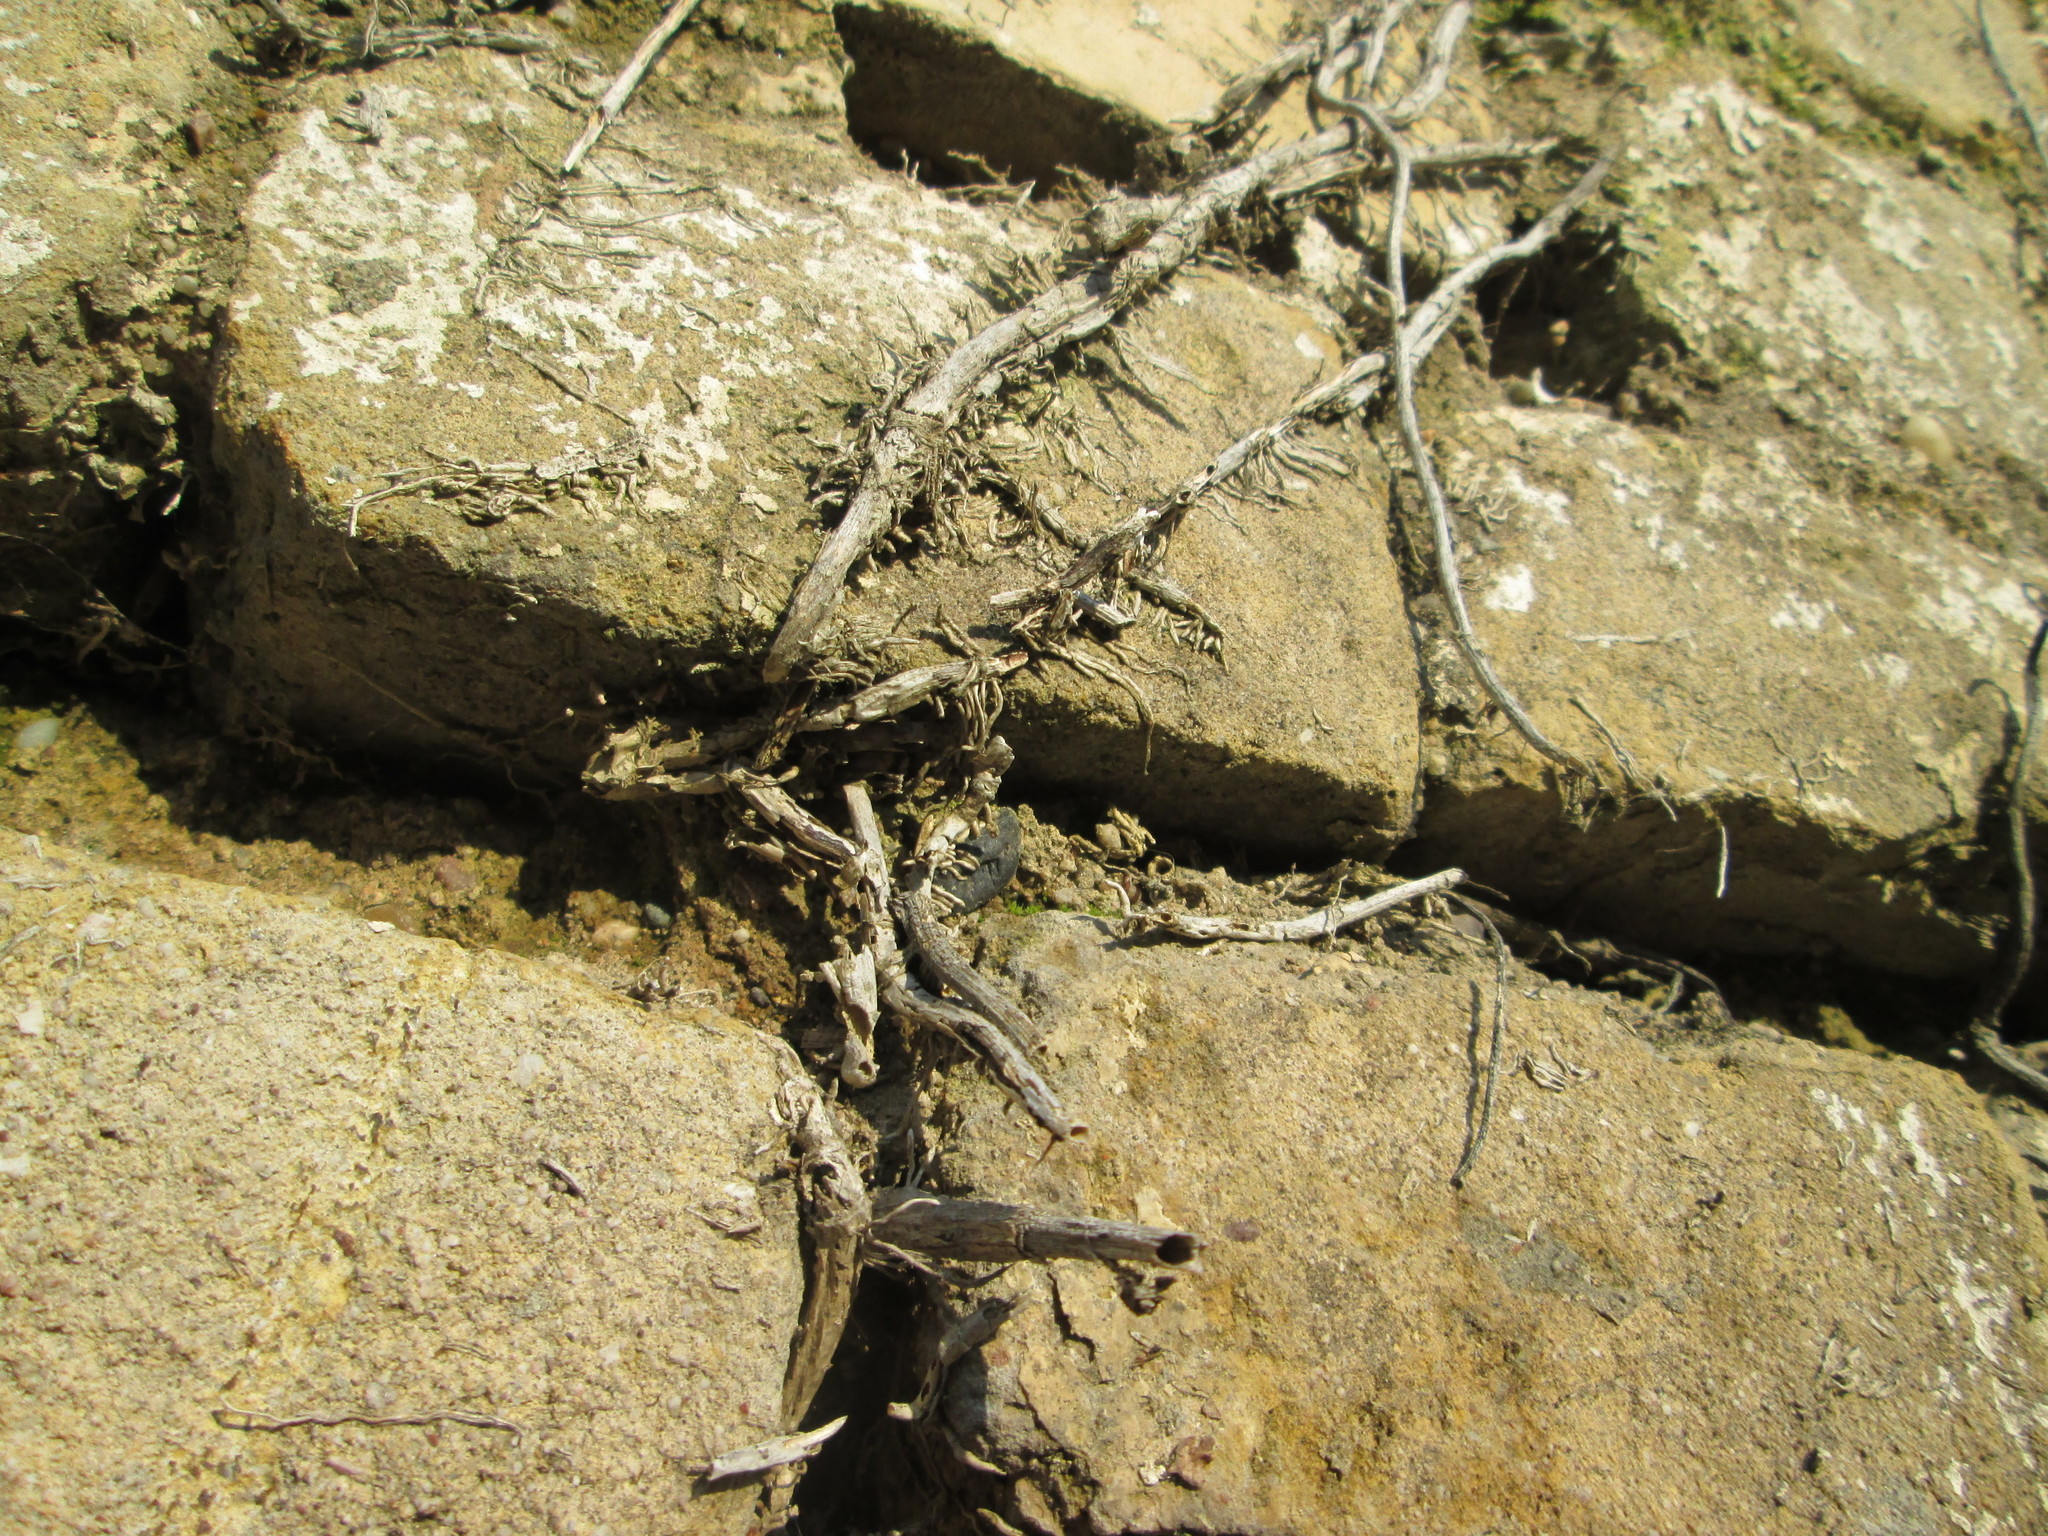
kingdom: Plantae
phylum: Tracheophyta
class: Magnoliopsida
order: Apiales
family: Araliaceae
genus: Hedera
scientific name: Hedera helix
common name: Ivy
